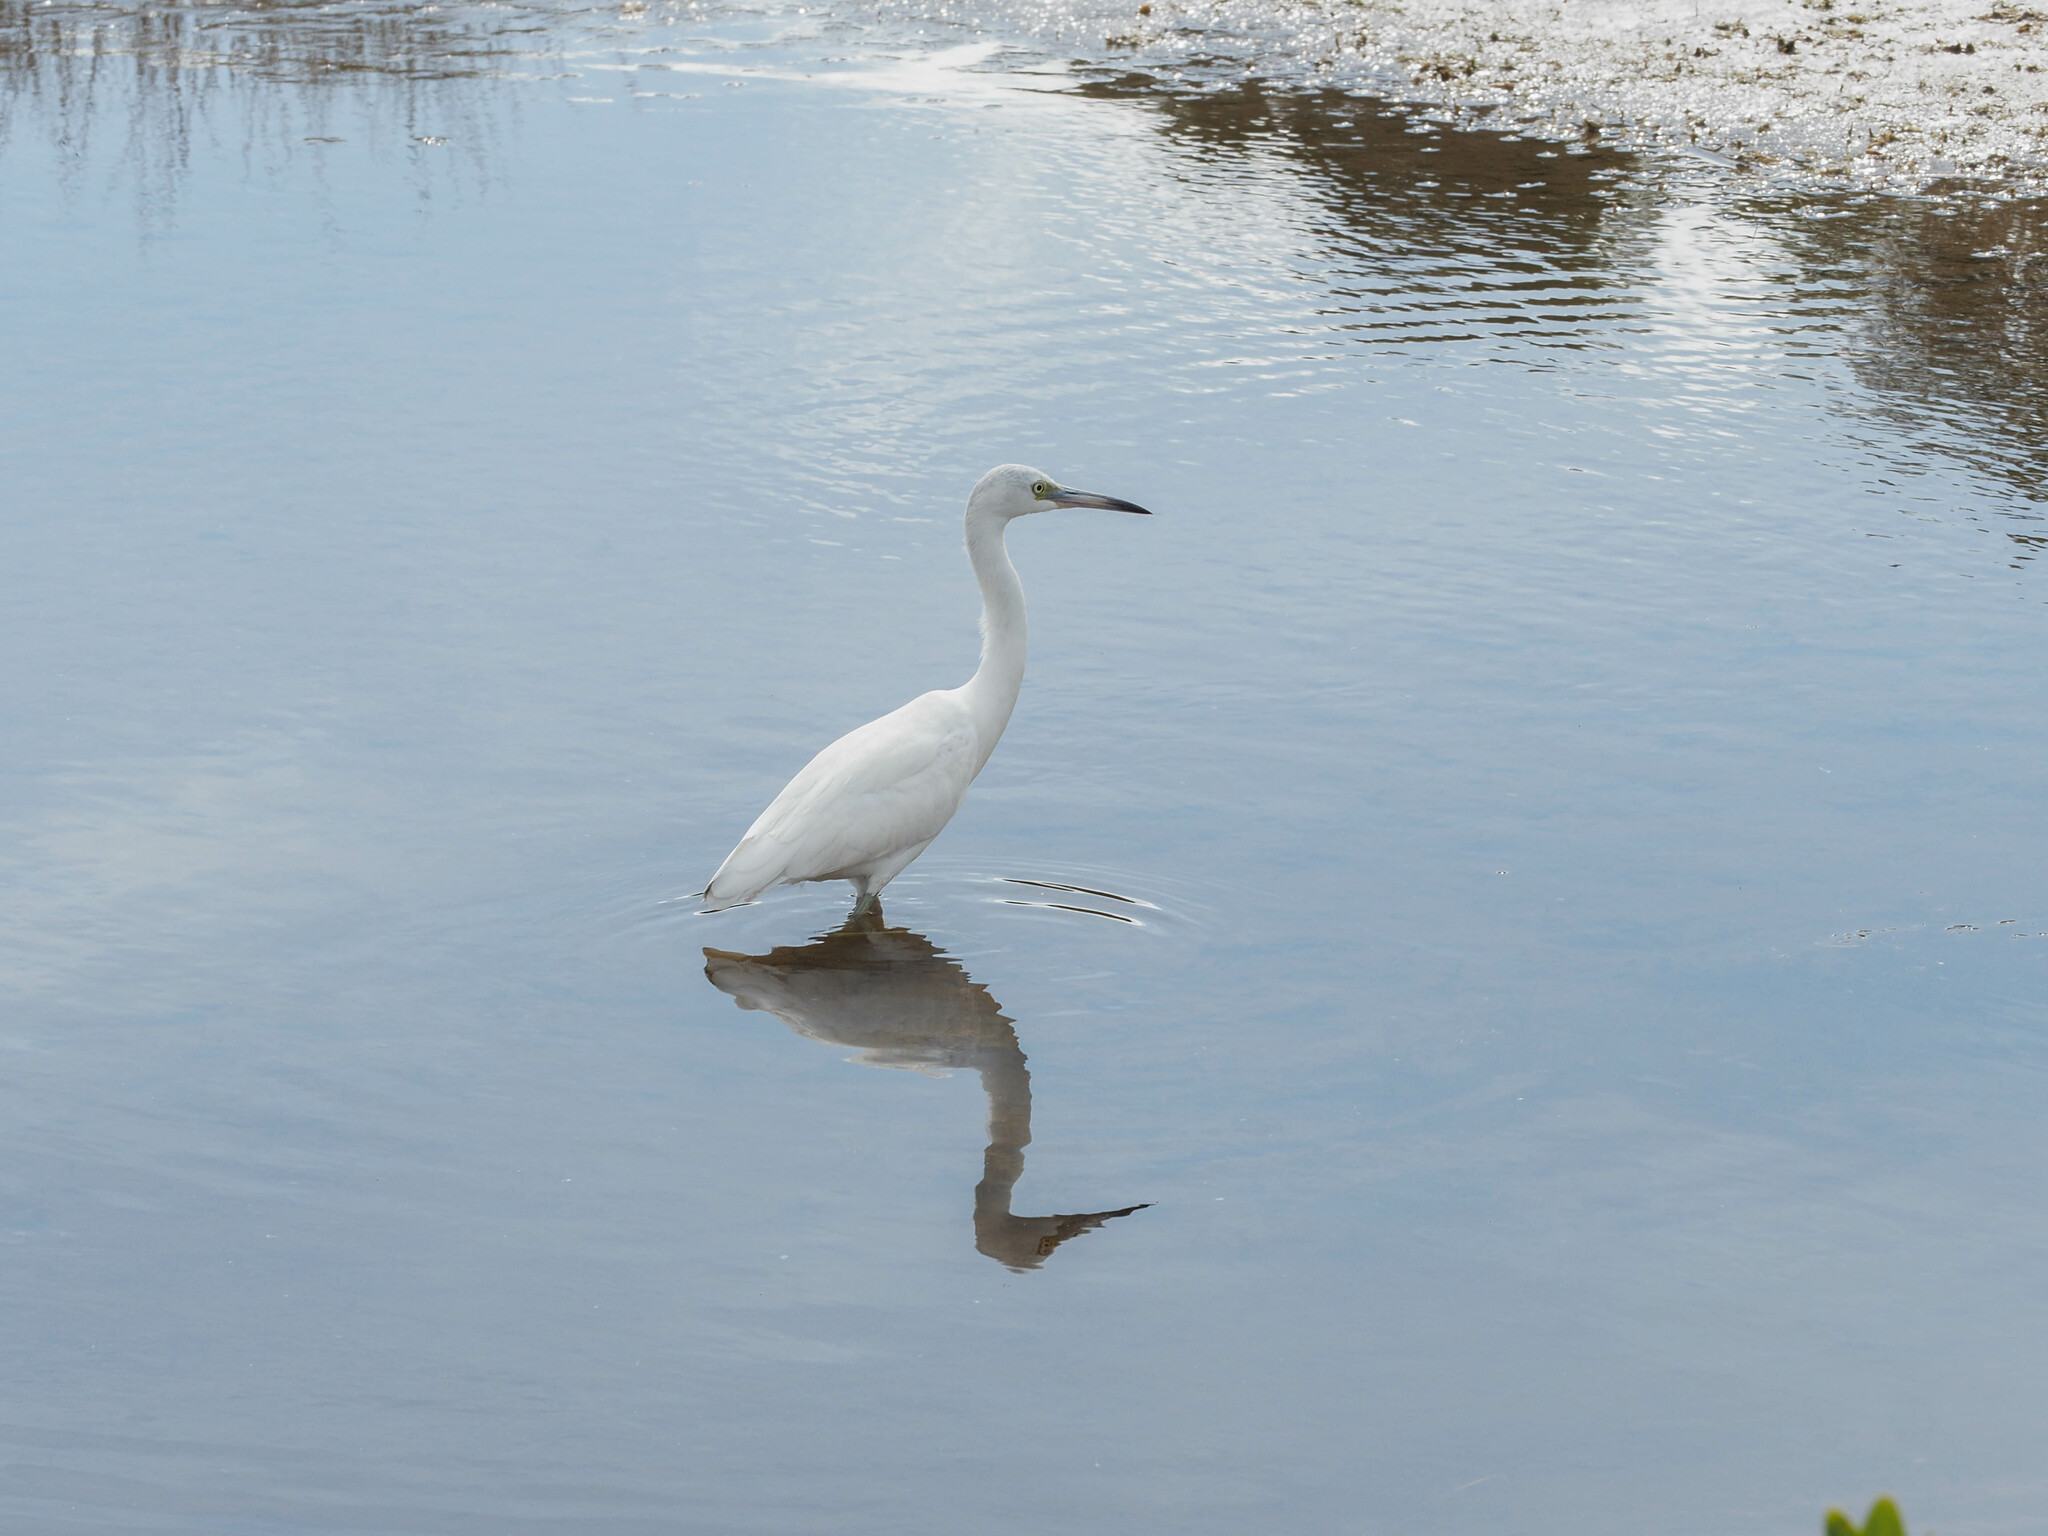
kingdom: Animalia
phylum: Chordata
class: Aves
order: Pelecaniformes
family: Ardeidae
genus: Egretta
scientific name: Egretta rufescens
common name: Reddish egret
